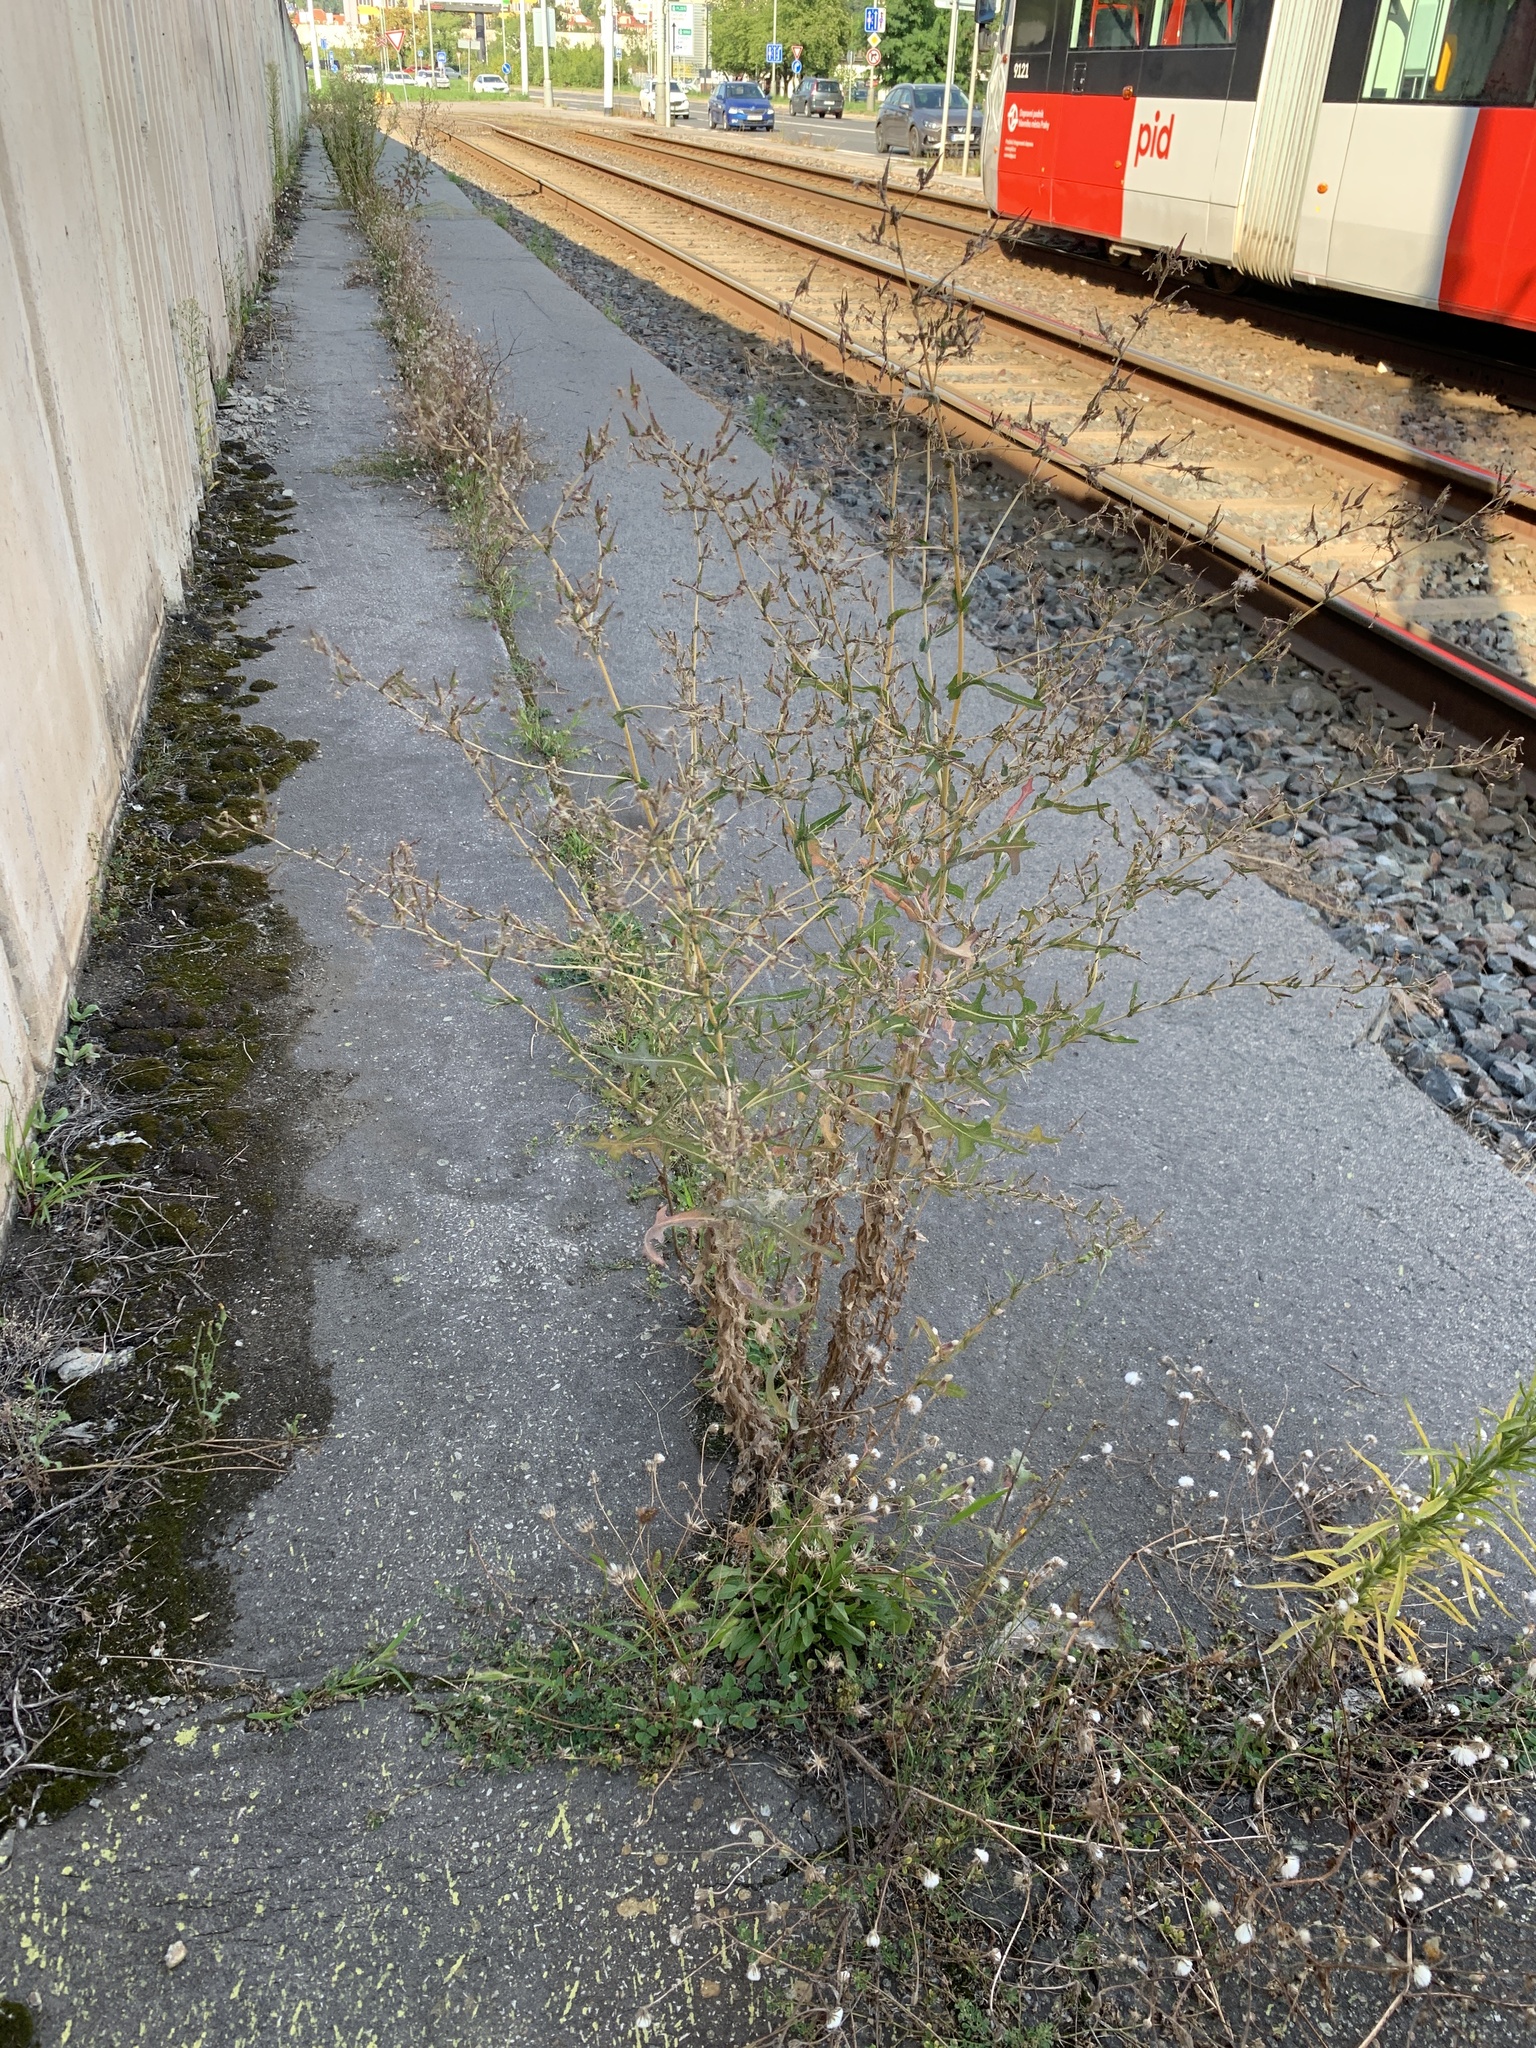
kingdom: Plantae
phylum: Tracheophyta
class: Magnoliopsida
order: Asterales
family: Asteraceae
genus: Lactuca
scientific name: Lactuca serriola
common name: Prickly lettuce
